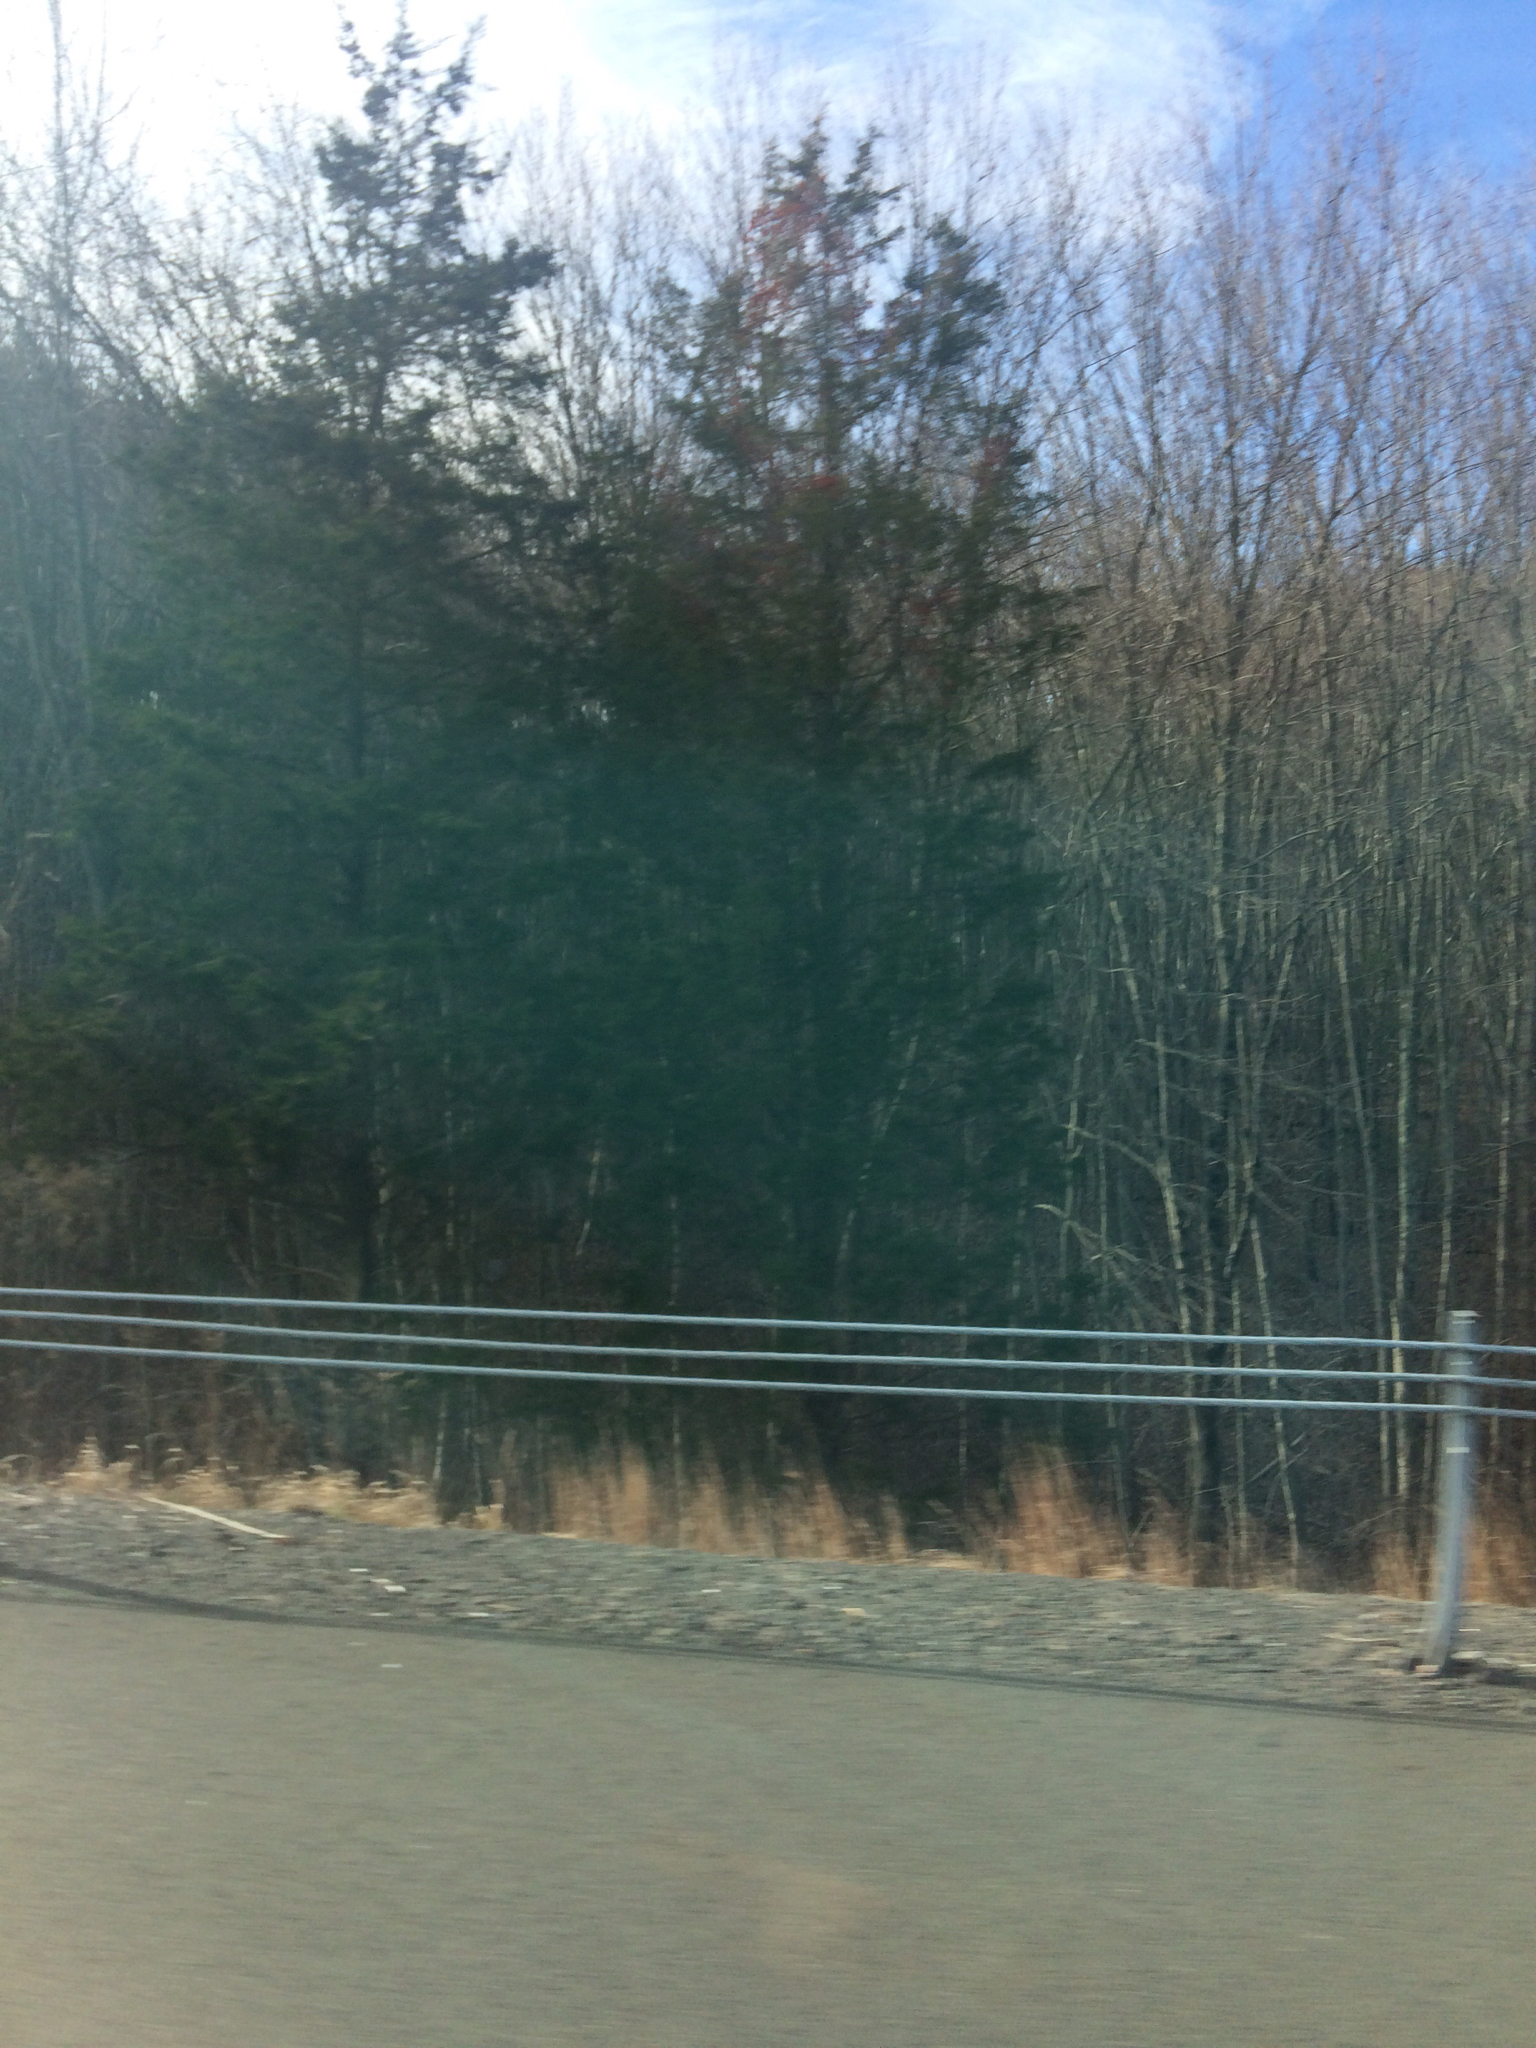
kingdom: Plantae
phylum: Tracheophyta
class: Pinopsida
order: Pinales
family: Cupressaceae
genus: Juniperus
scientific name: Juniperus virginiana
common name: Red juniper
